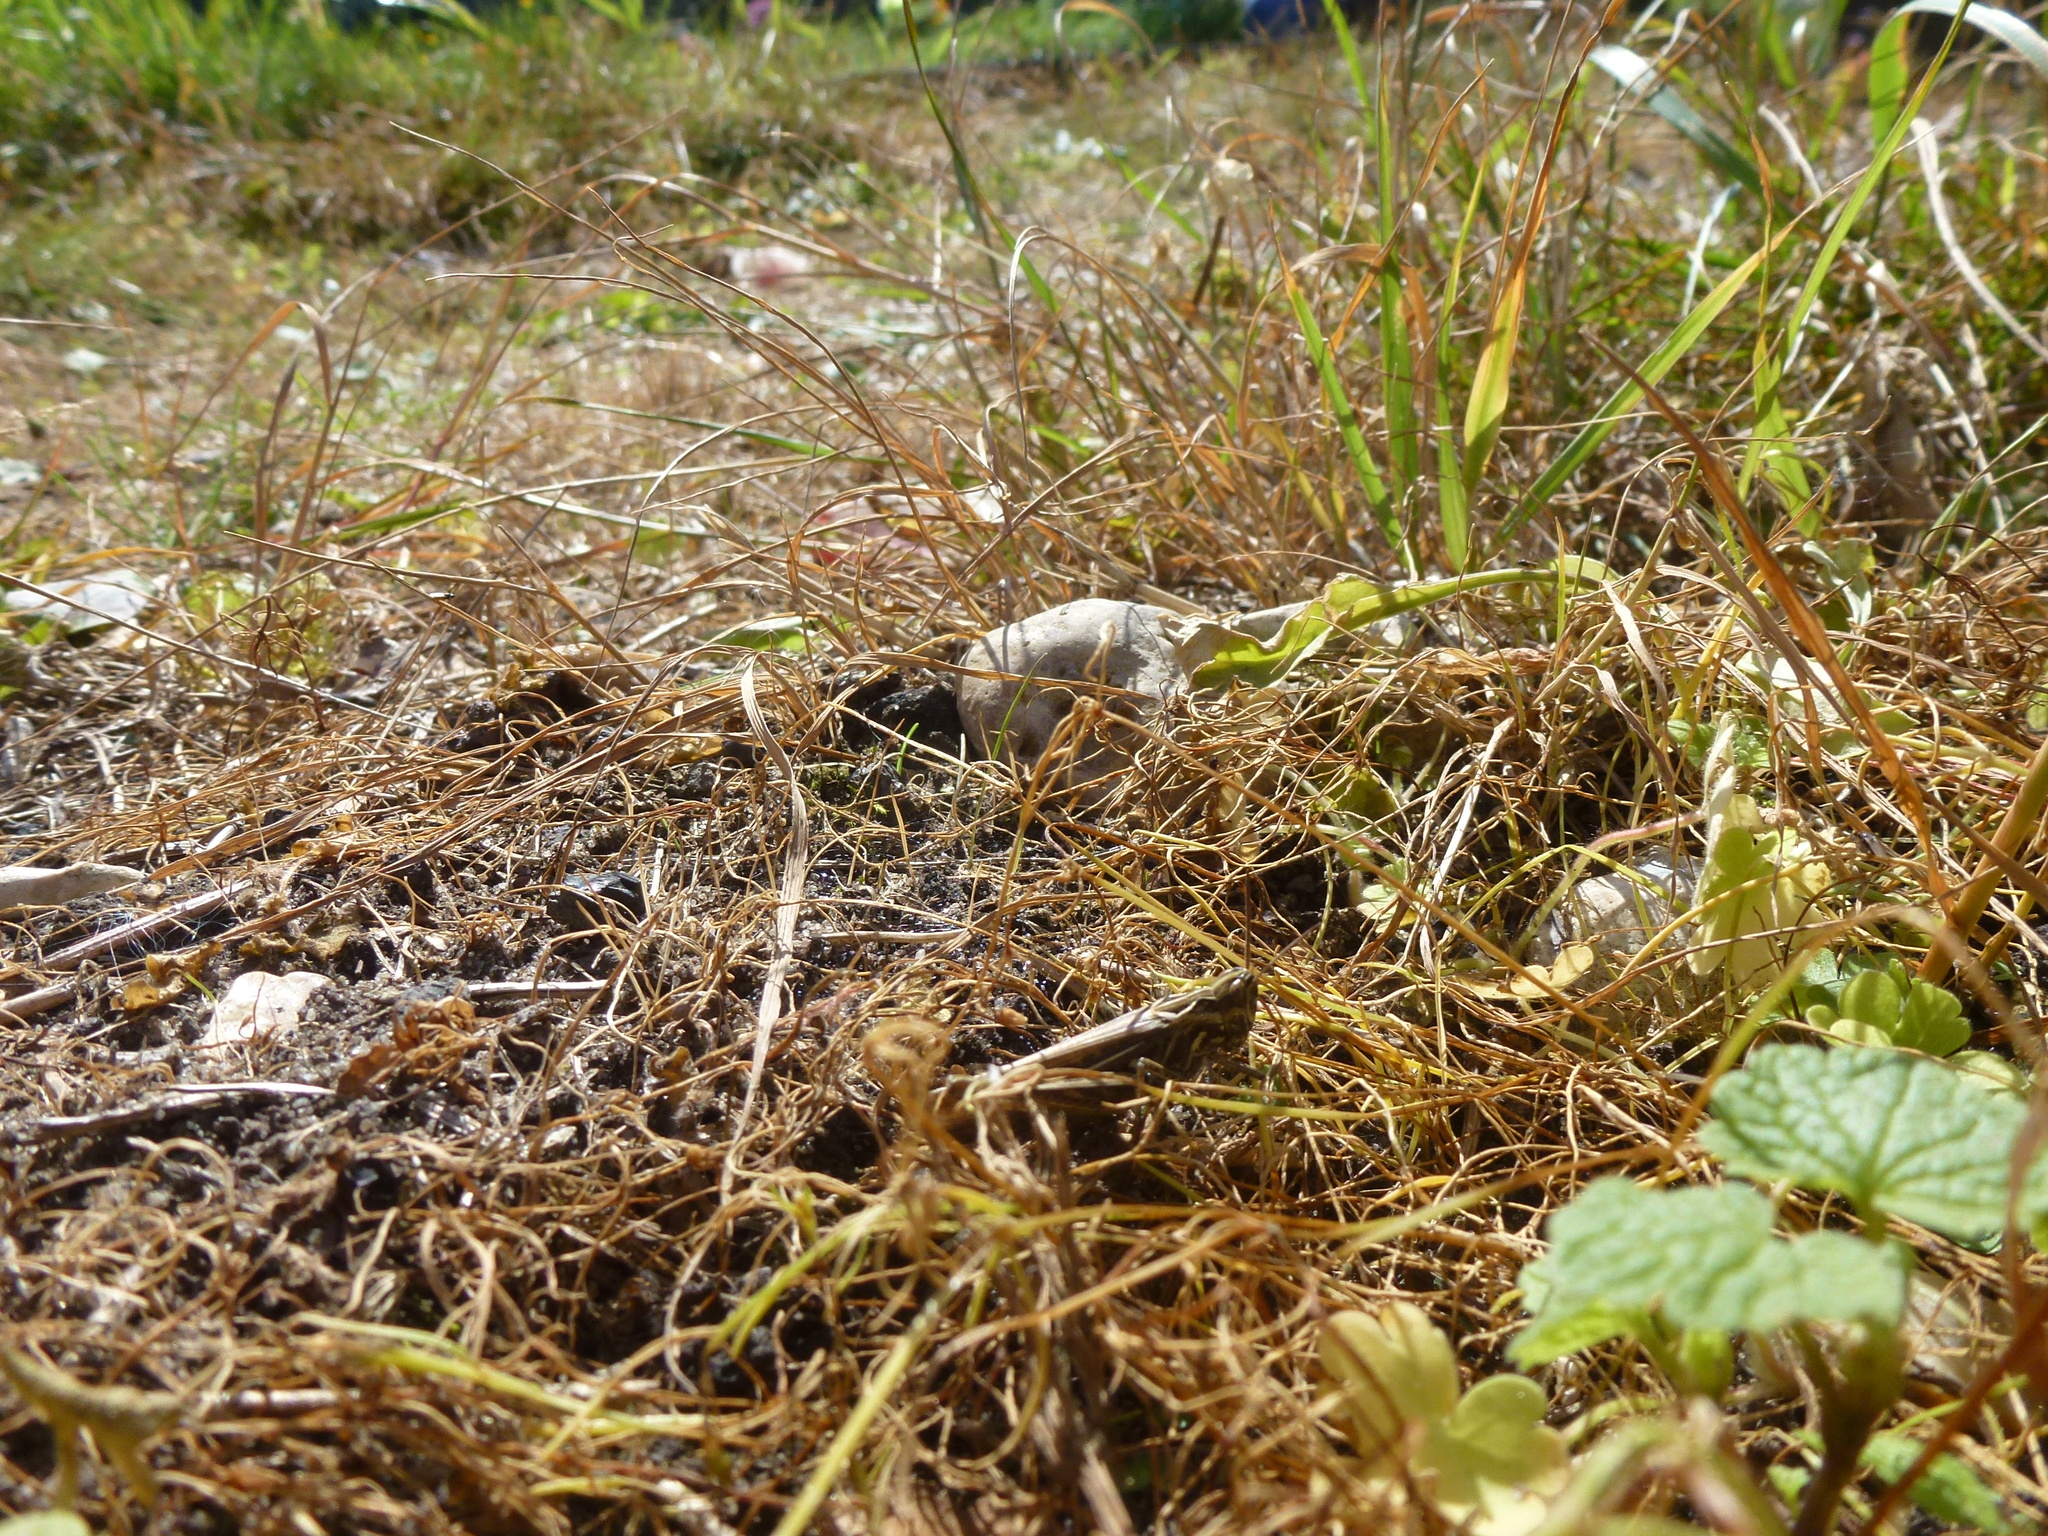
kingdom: Animalia
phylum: Arthropoda
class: Insecta
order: Orthoptera
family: Acrididae
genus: Chorthippus
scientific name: Chorthippus brunneus
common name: Field grasshopper
